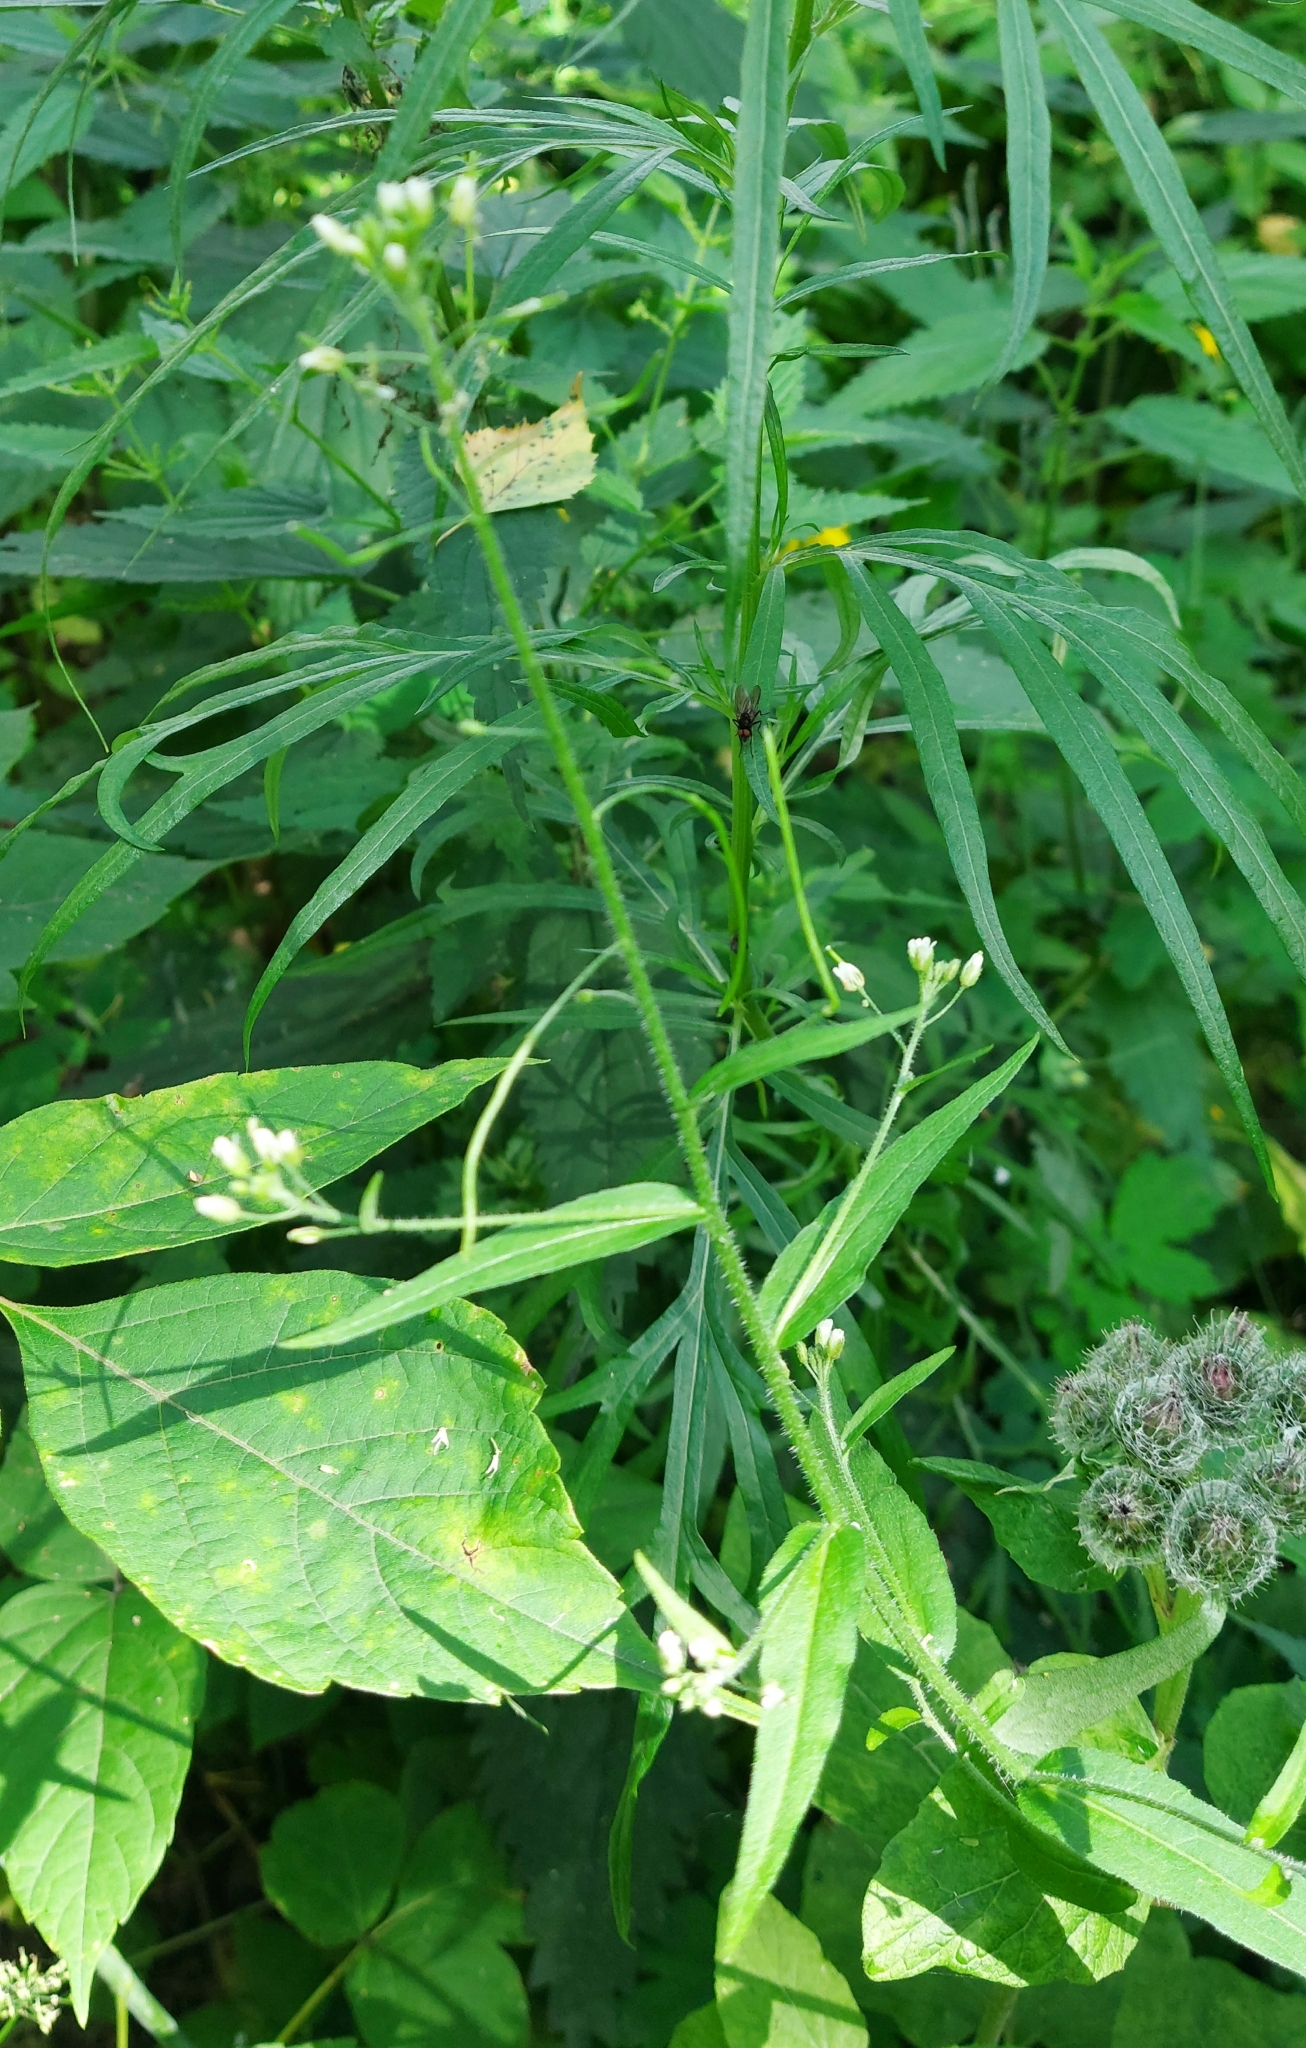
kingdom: Plantae
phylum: Tracheophyta
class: Magnoliopsida
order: Brassicales
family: Brassicaceae
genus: Catolobus
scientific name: Catolobus pendulus
